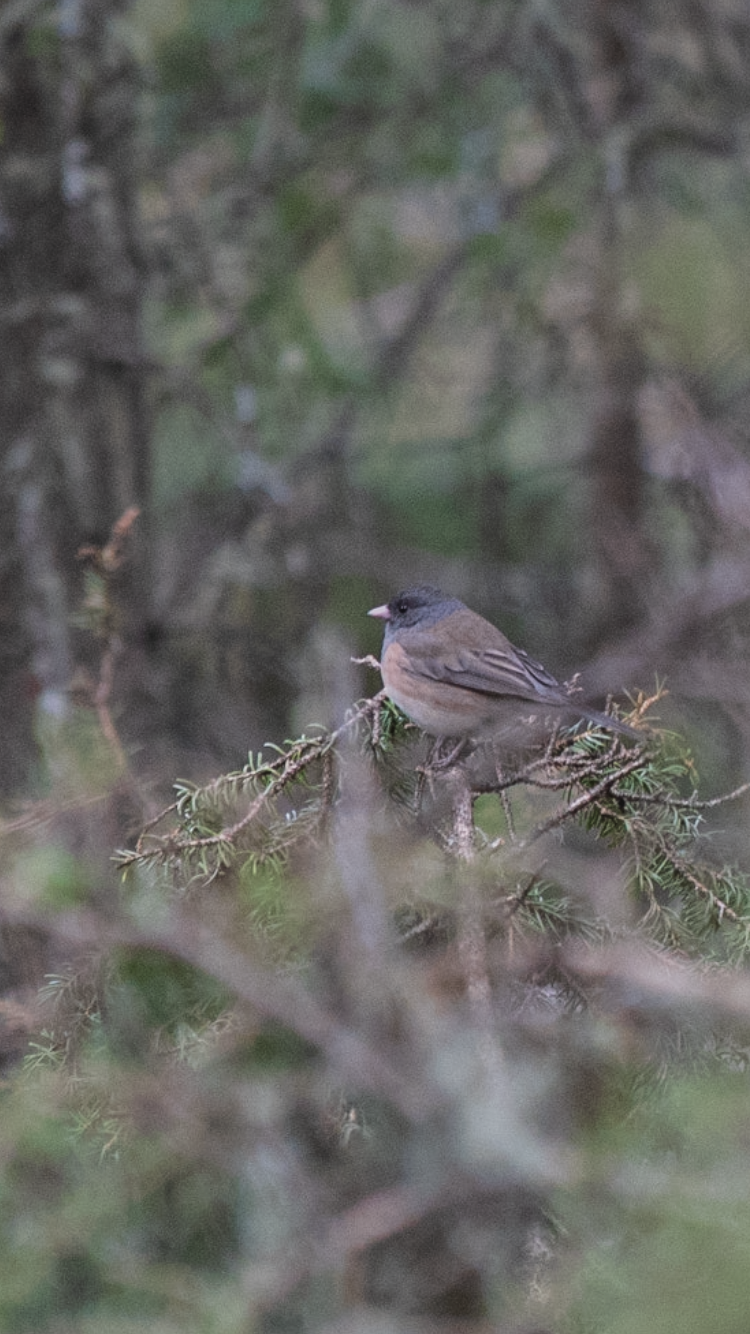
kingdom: Animalia
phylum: Chordata
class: Aves
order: Passeriformes
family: Passerellidae
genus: Junco
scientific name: Junco hyemalis
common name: Dark-eyed junco
